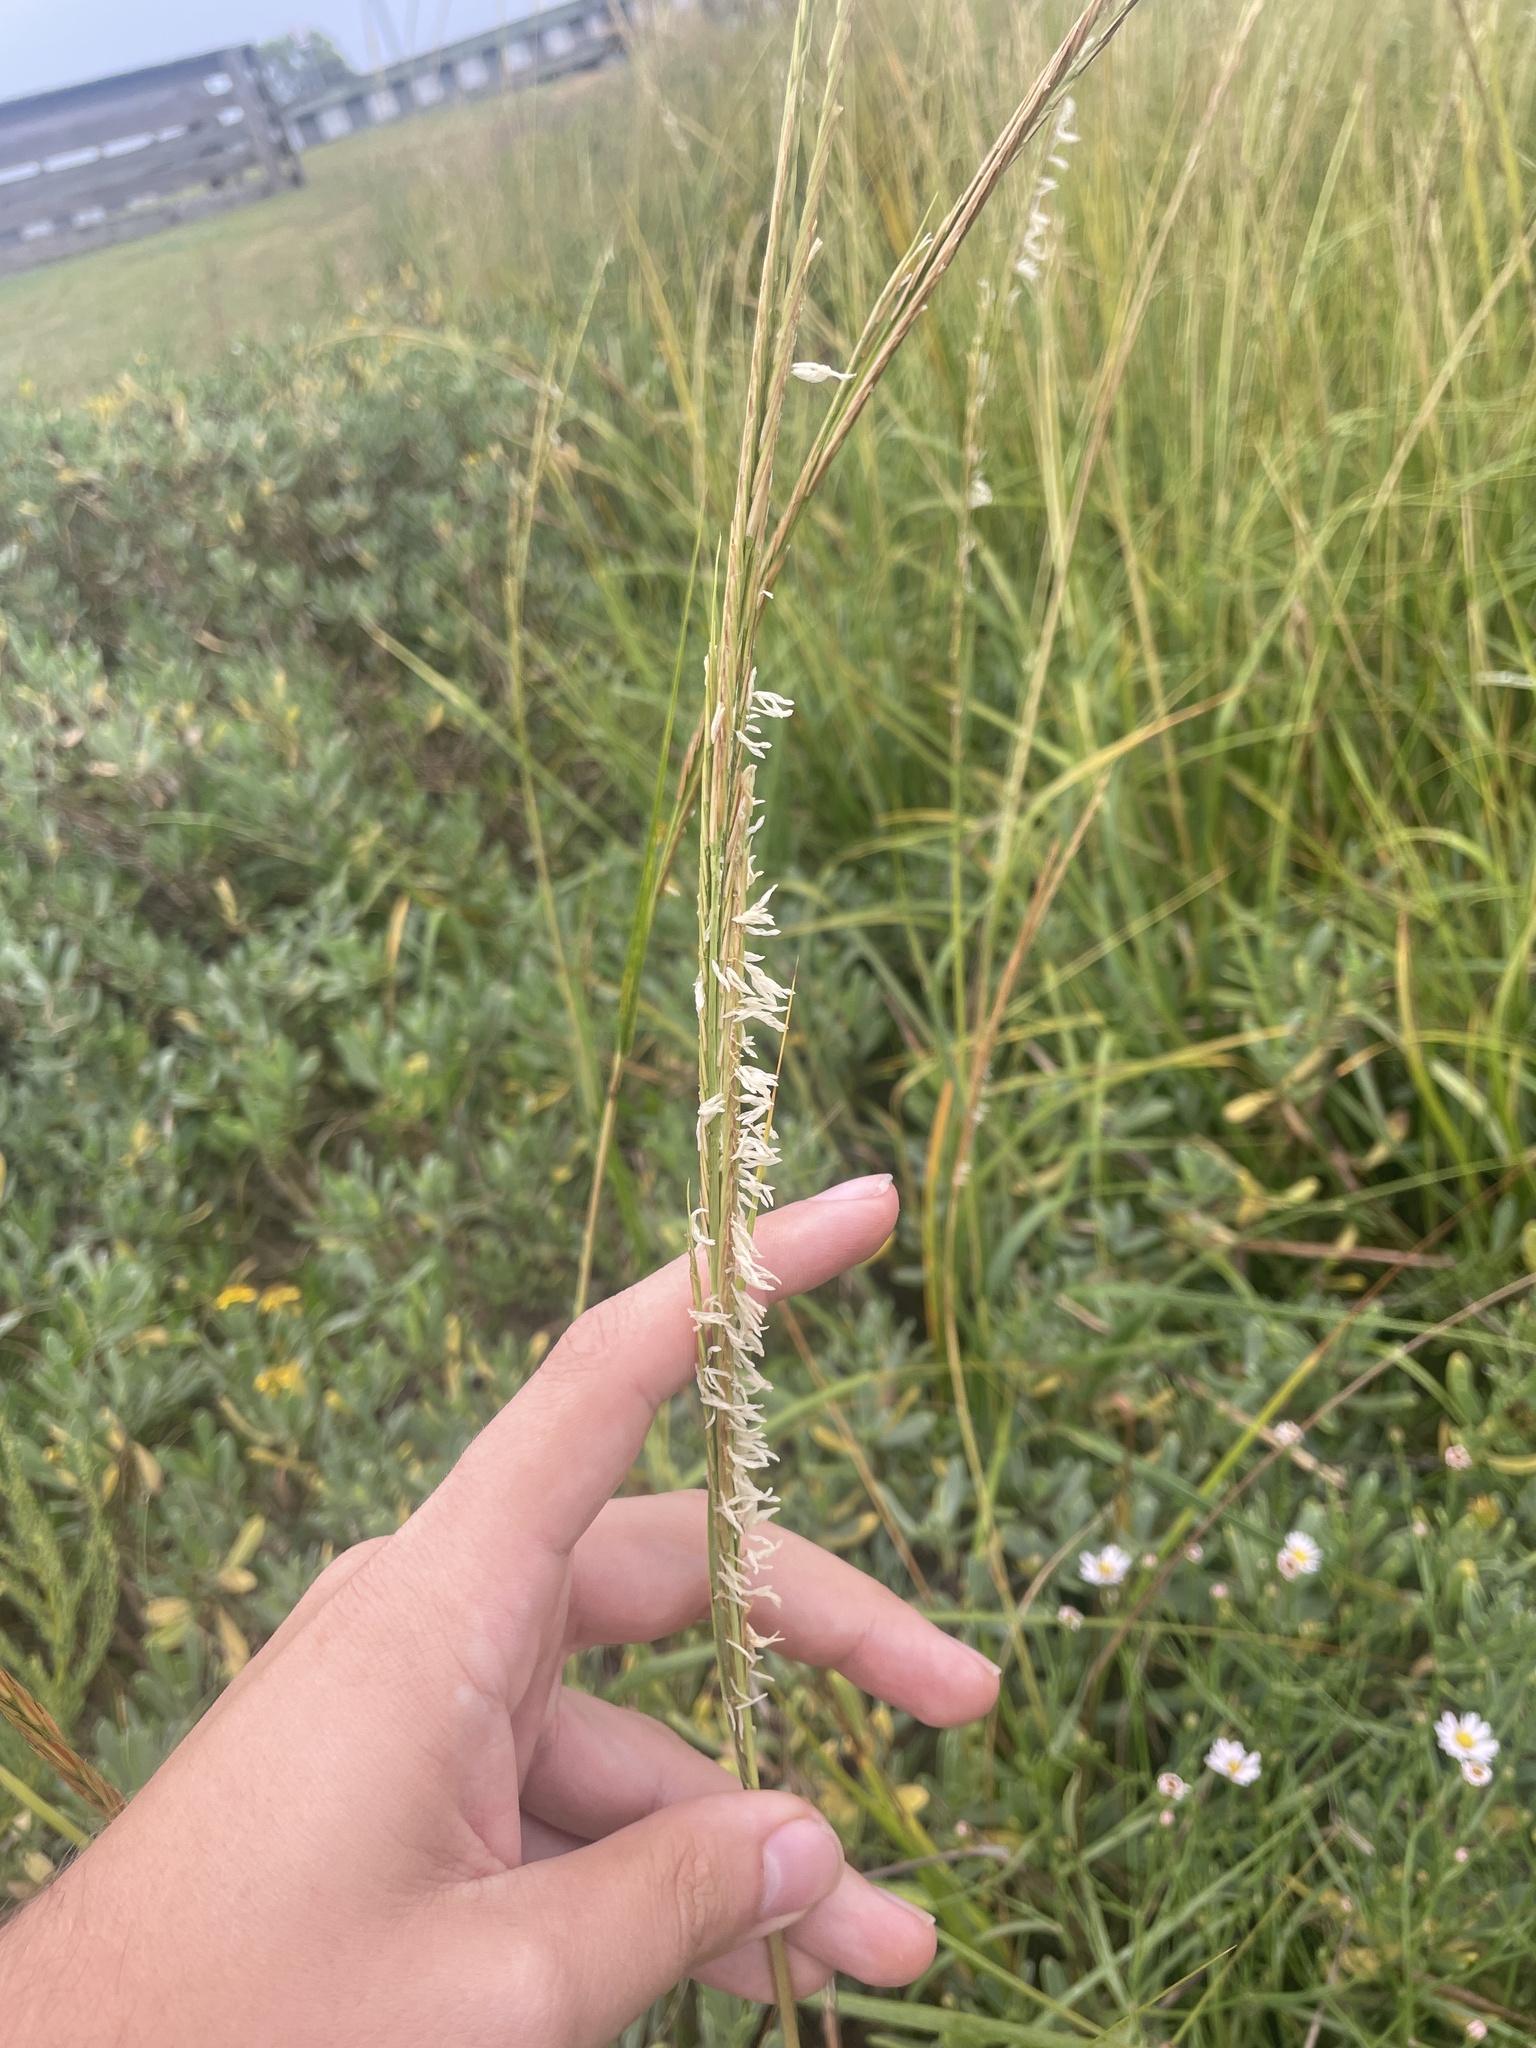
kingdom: Plantae
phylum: Tracheophyta
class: Liliopsida
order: Poales
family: Poaceae
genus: Sporobolus
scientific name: Sporobolus alterniflorus
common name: Atlantic cordgrass
